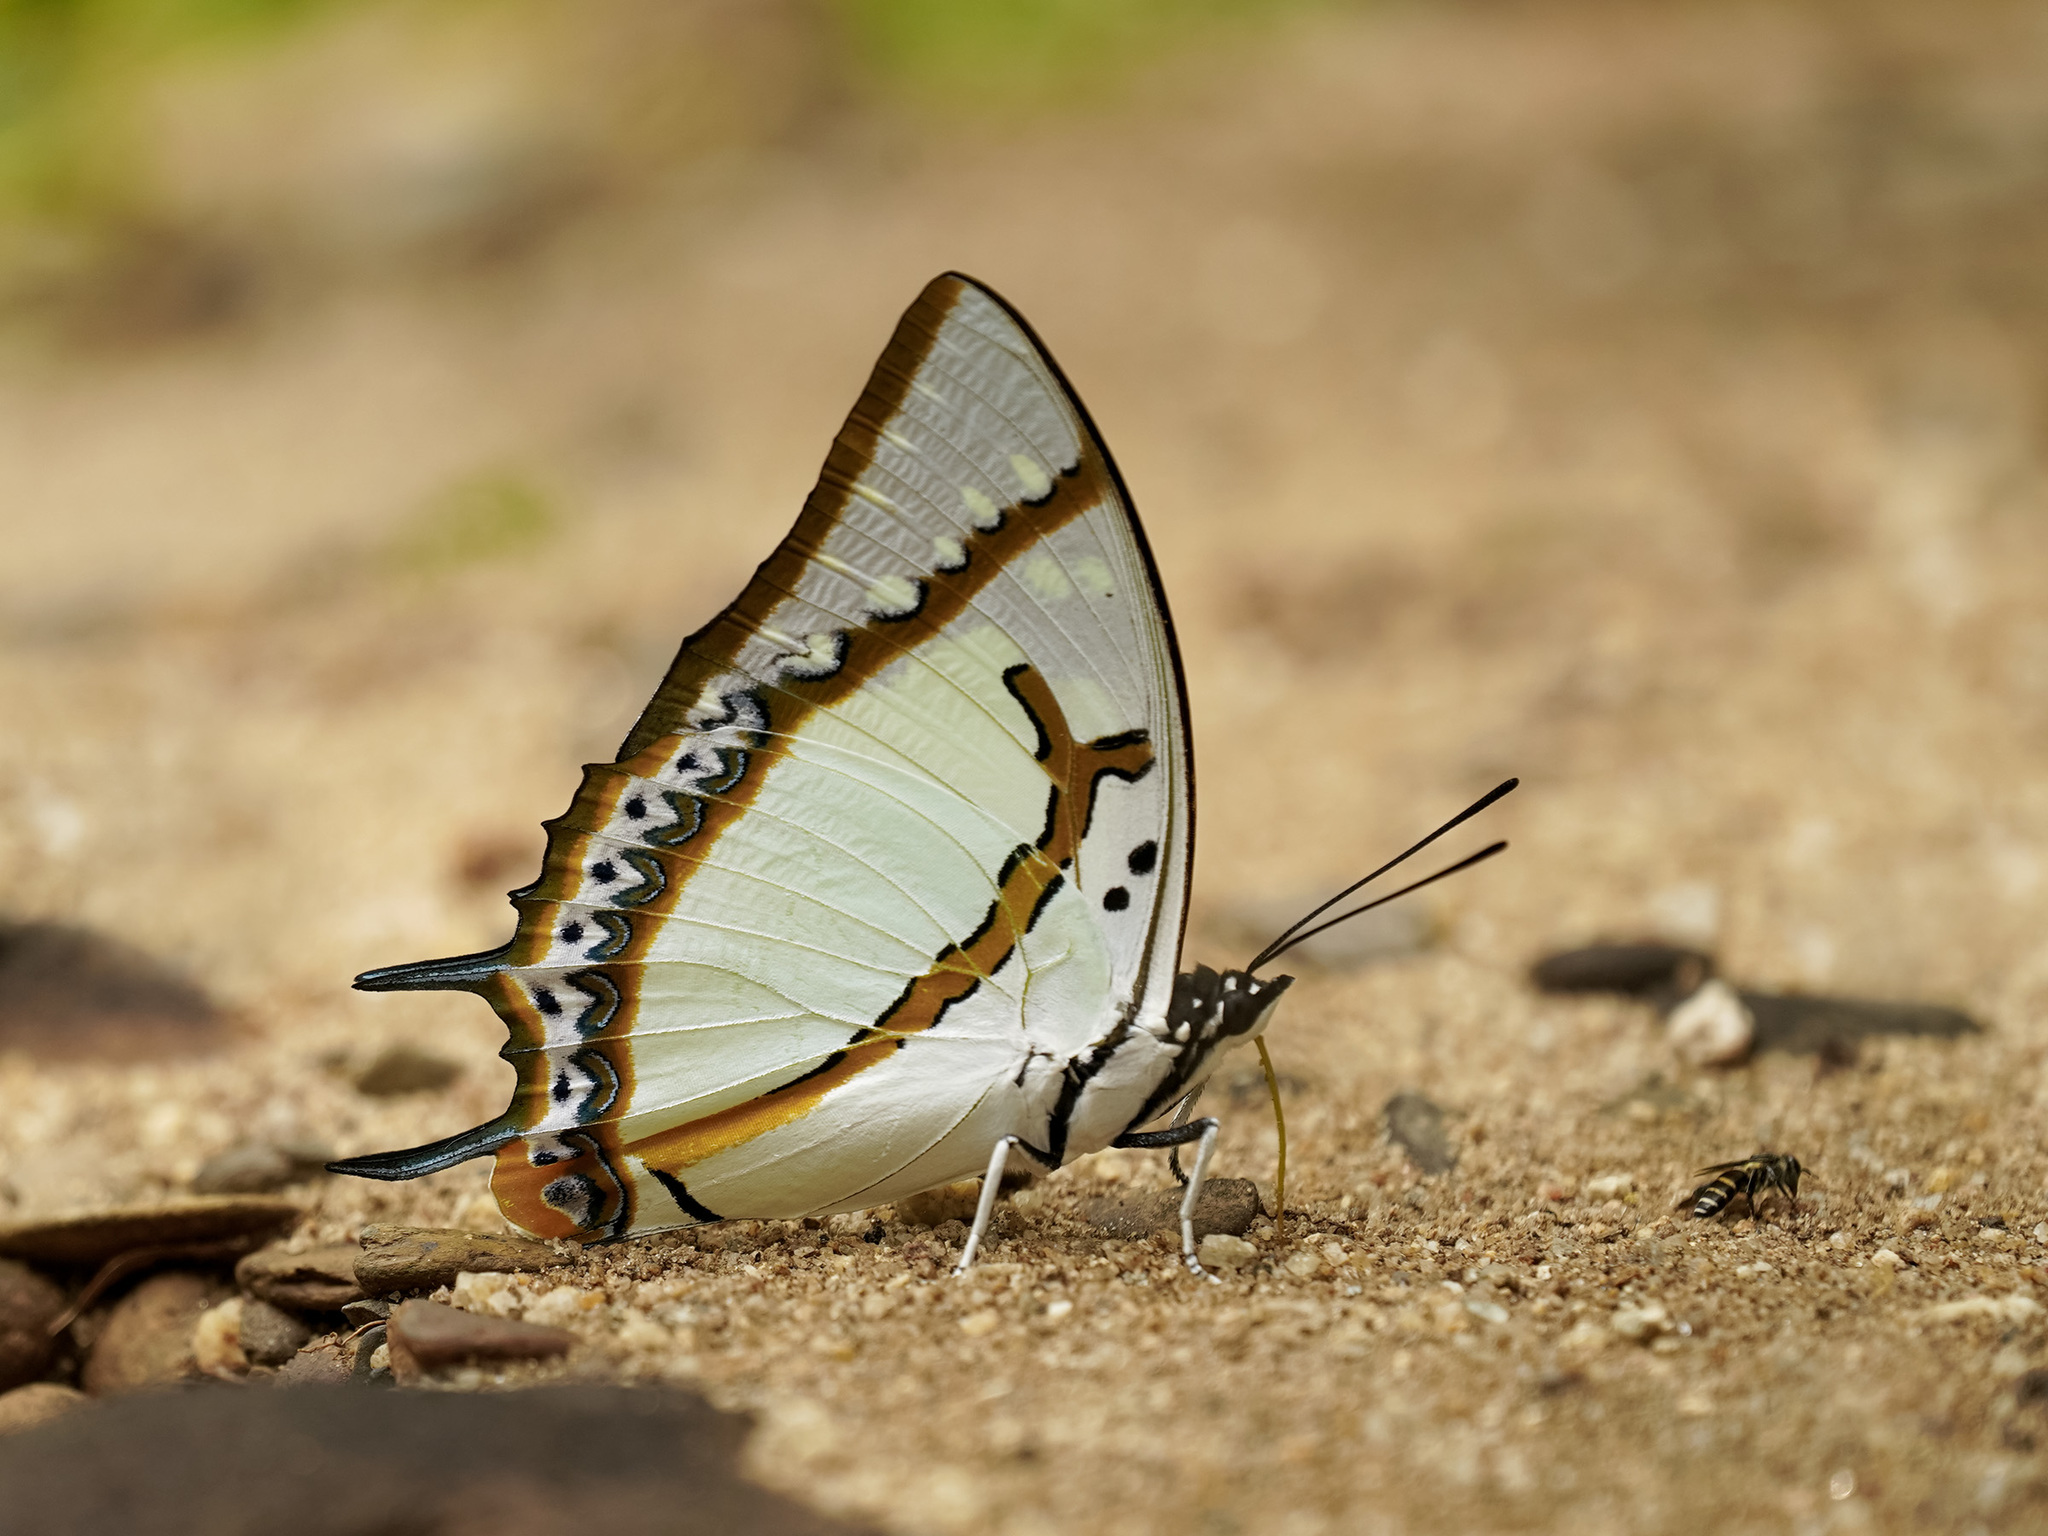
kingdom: Animalia
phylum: Arthropoda
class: Insecta
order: Lepidoptera
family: Nymphalidae
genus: Polyura
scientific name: Polyura eudamippus
